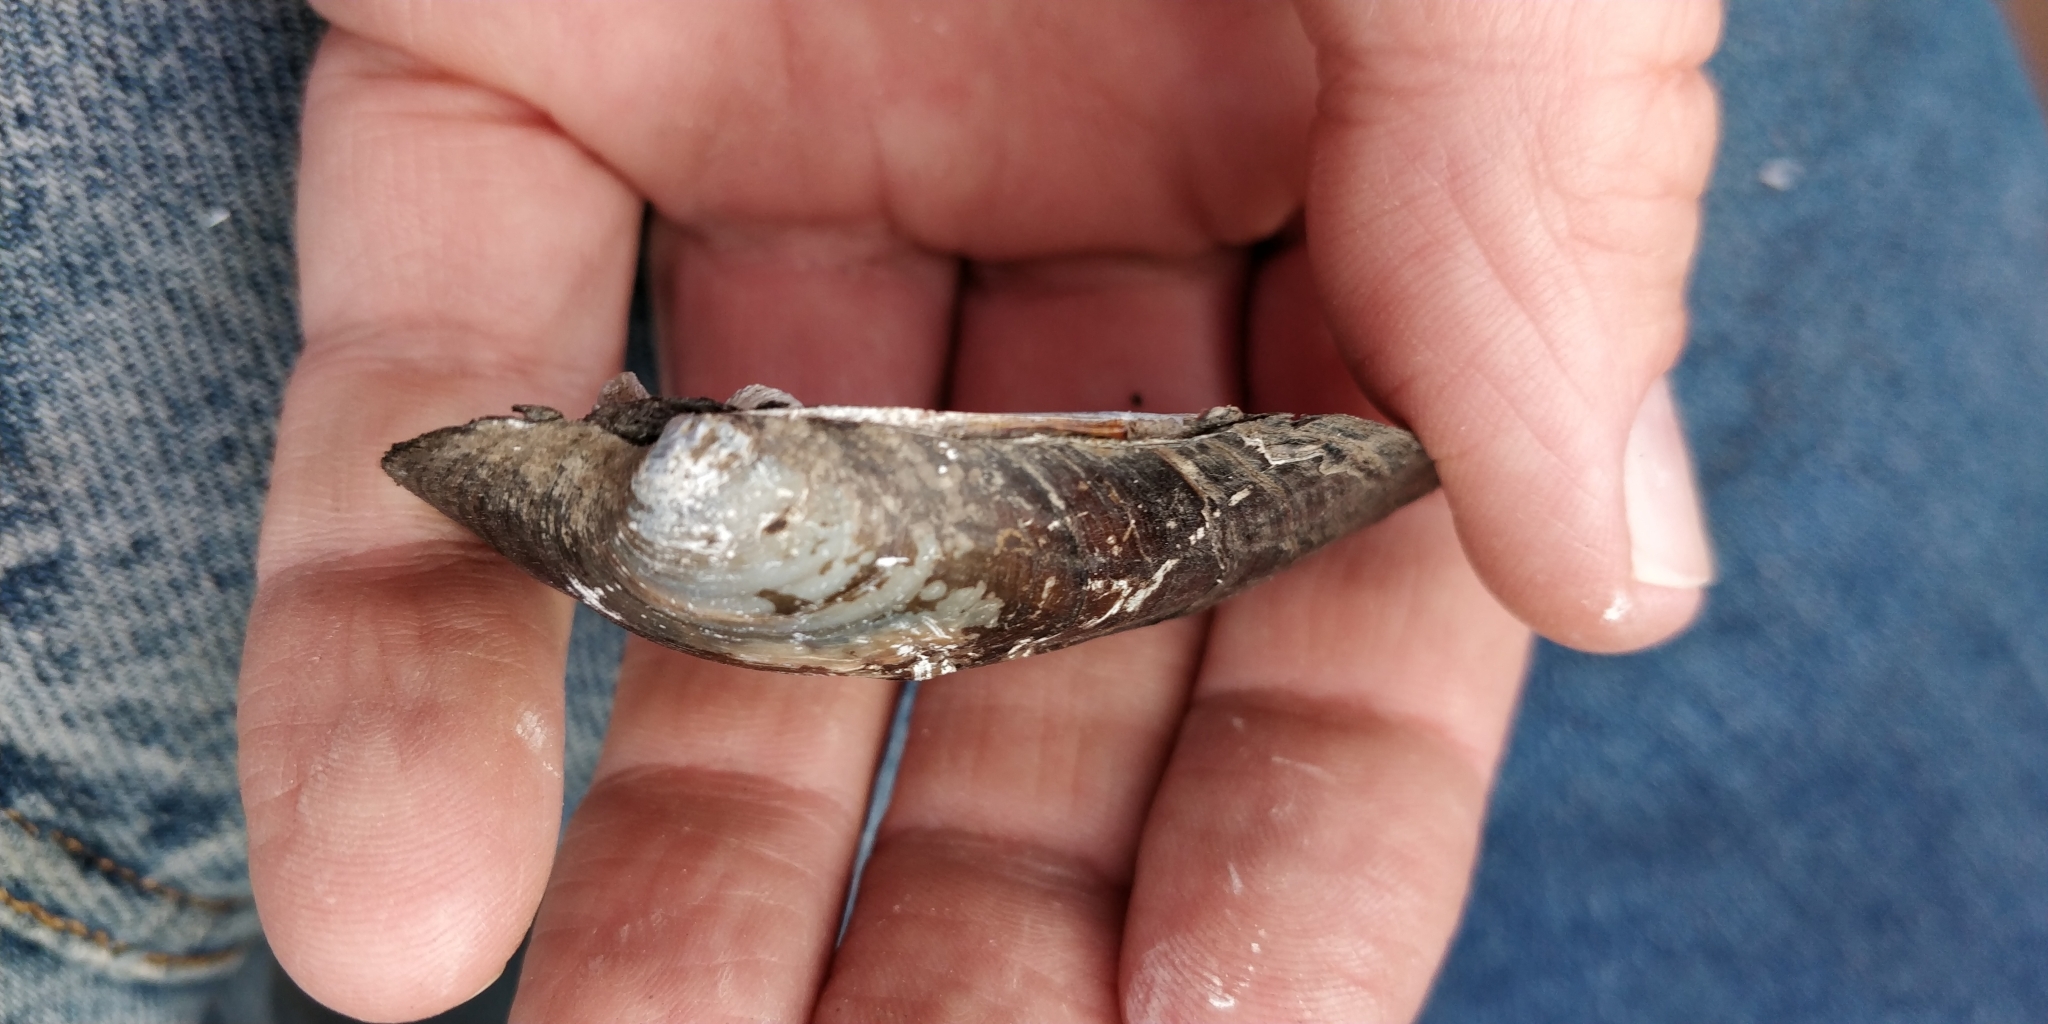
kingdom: Animalia
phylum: Mollusca
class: Bivalvia
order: Unionida
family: Unionidae
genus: Amblema
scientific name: Amblema plicata
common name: Threeridge
